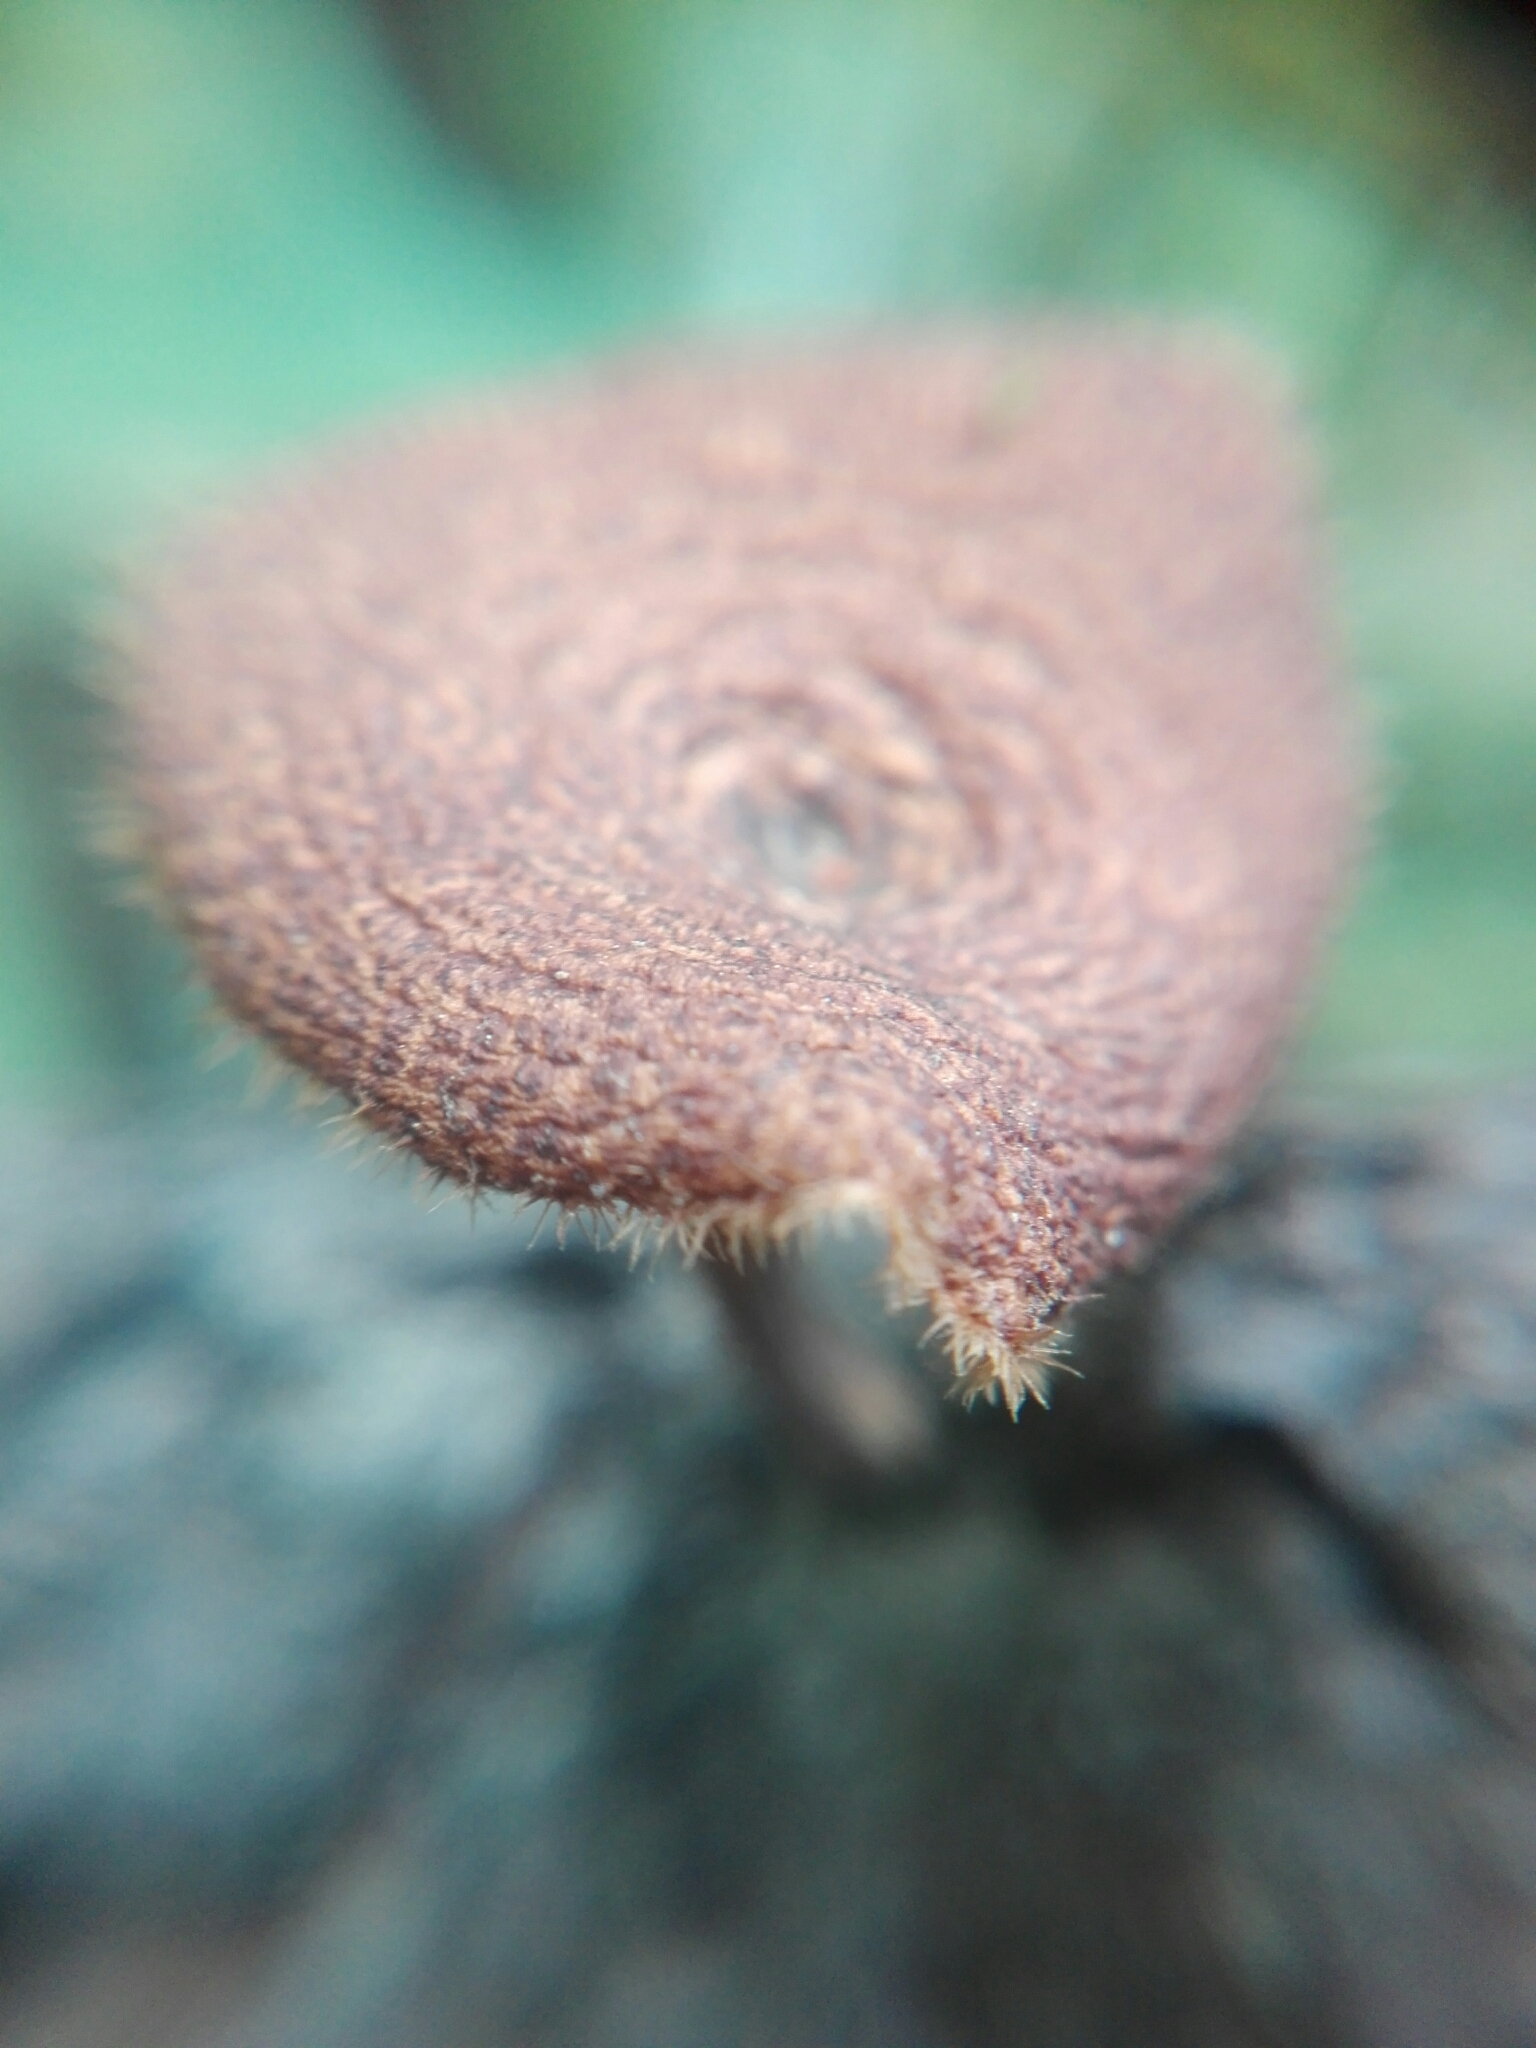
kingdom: Fungi
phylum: Basidiomycota
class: Agaricomycetes
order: Polyporales
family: Polyporaceae
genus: Lentinus
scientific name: Lentinus arcularius
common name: Spring polypore
